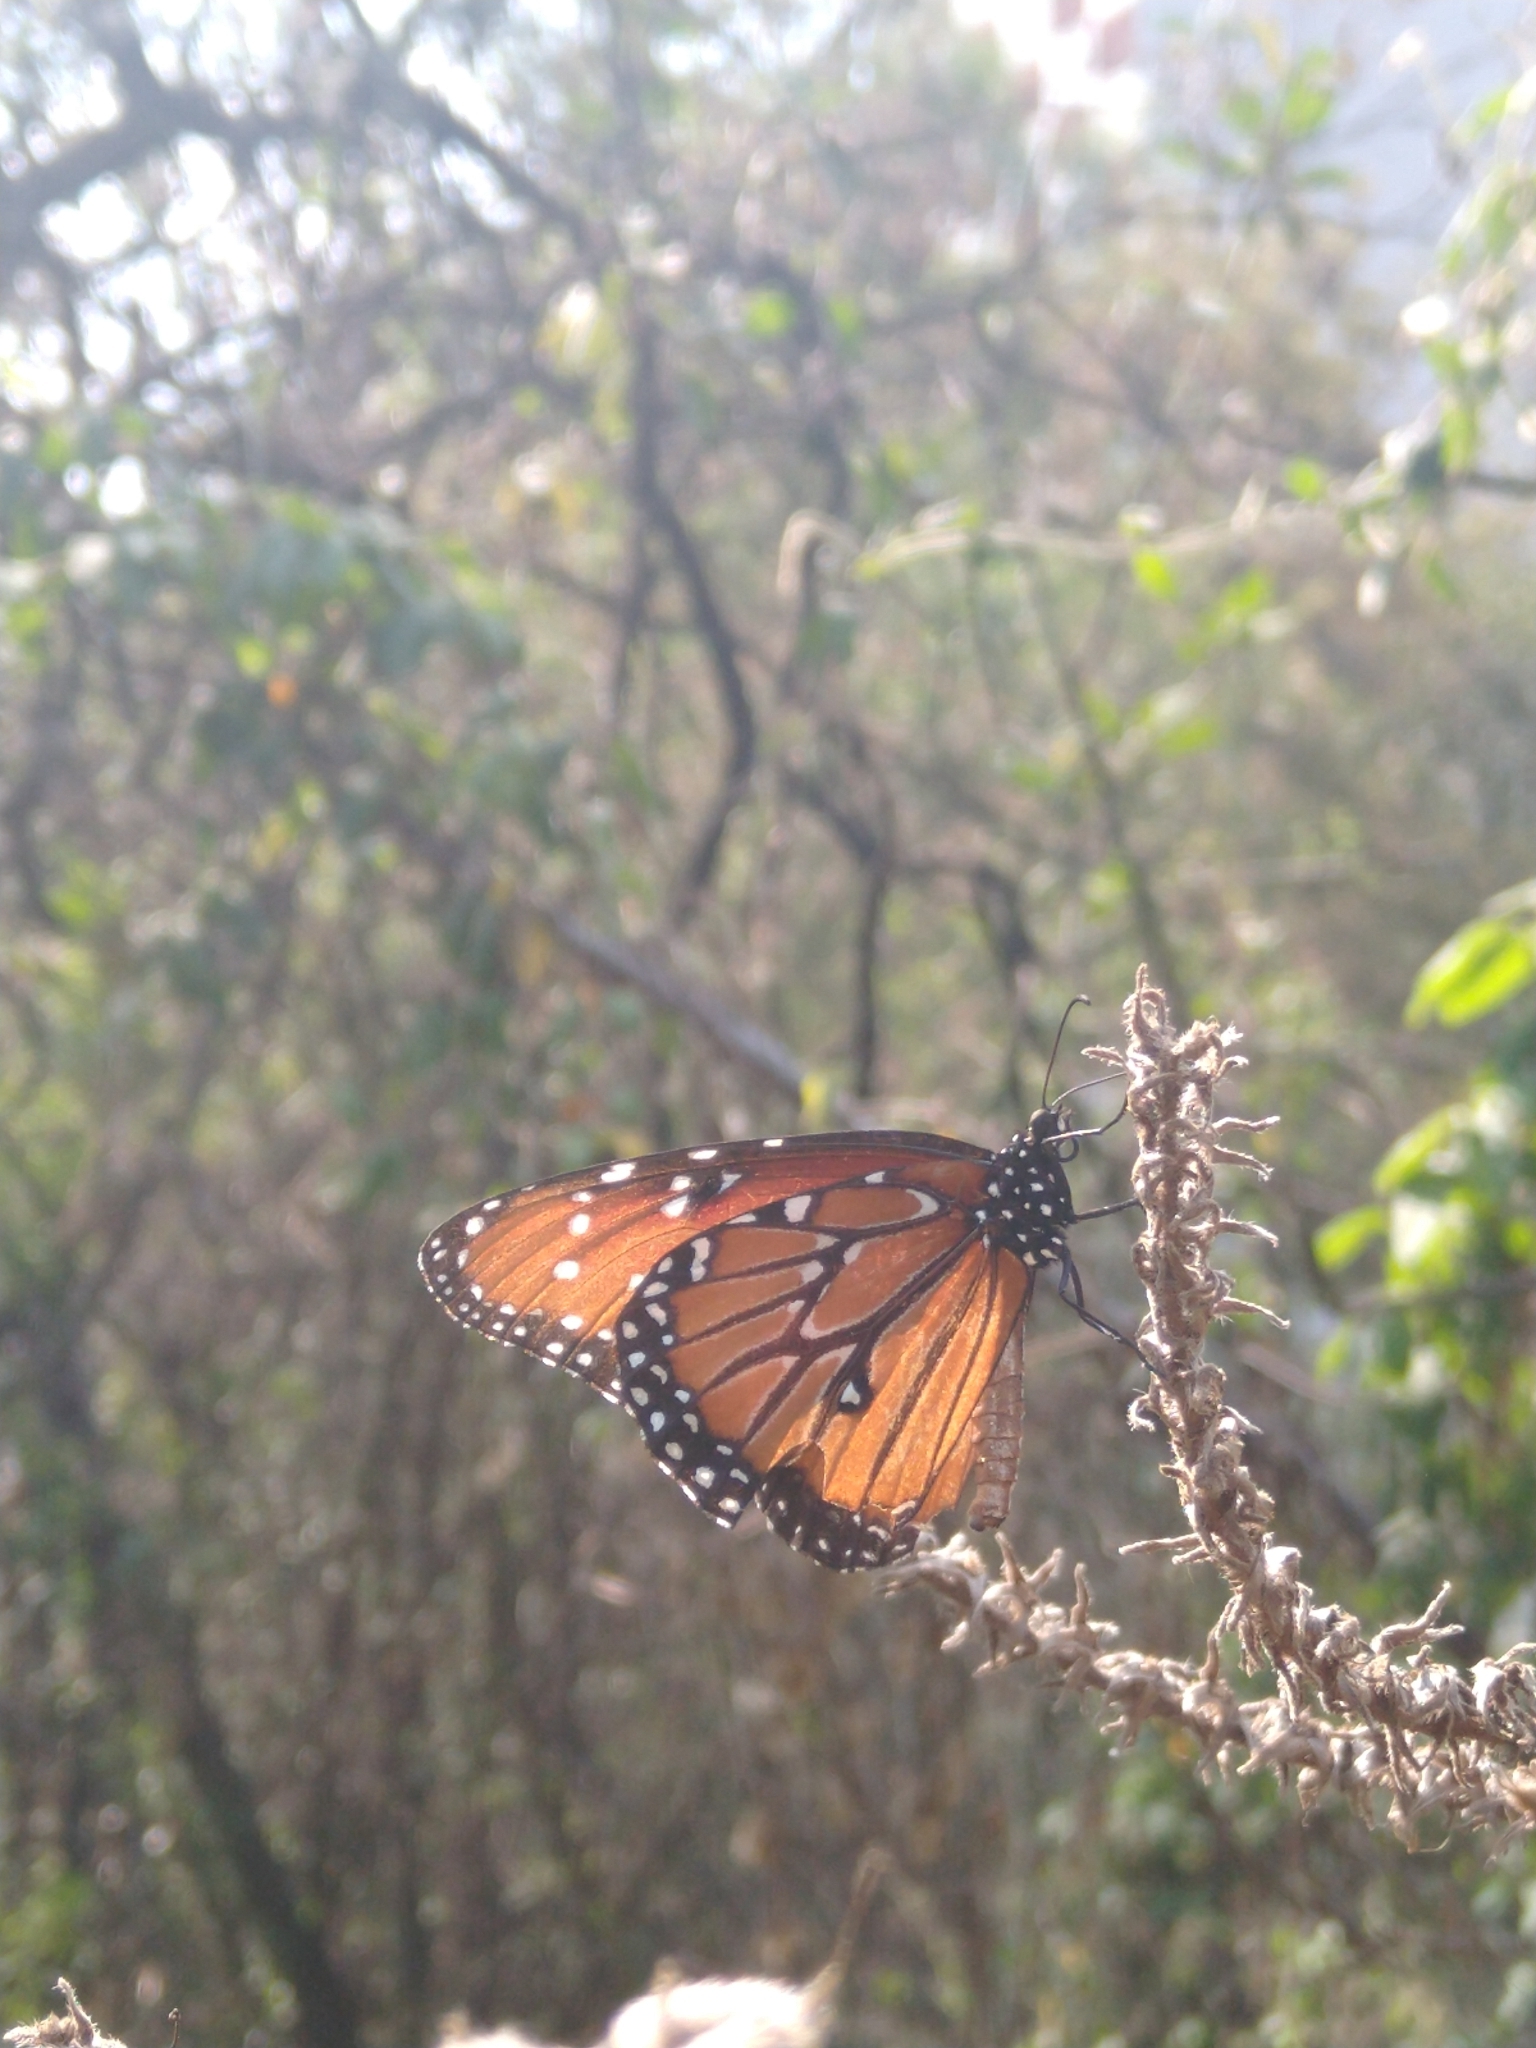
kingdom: Animalia
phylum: Arthropoda
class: Insecta
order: Lepidoptera
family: Nymphalidae
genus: Danaus
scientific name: Danaus gilippus
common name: Queen
